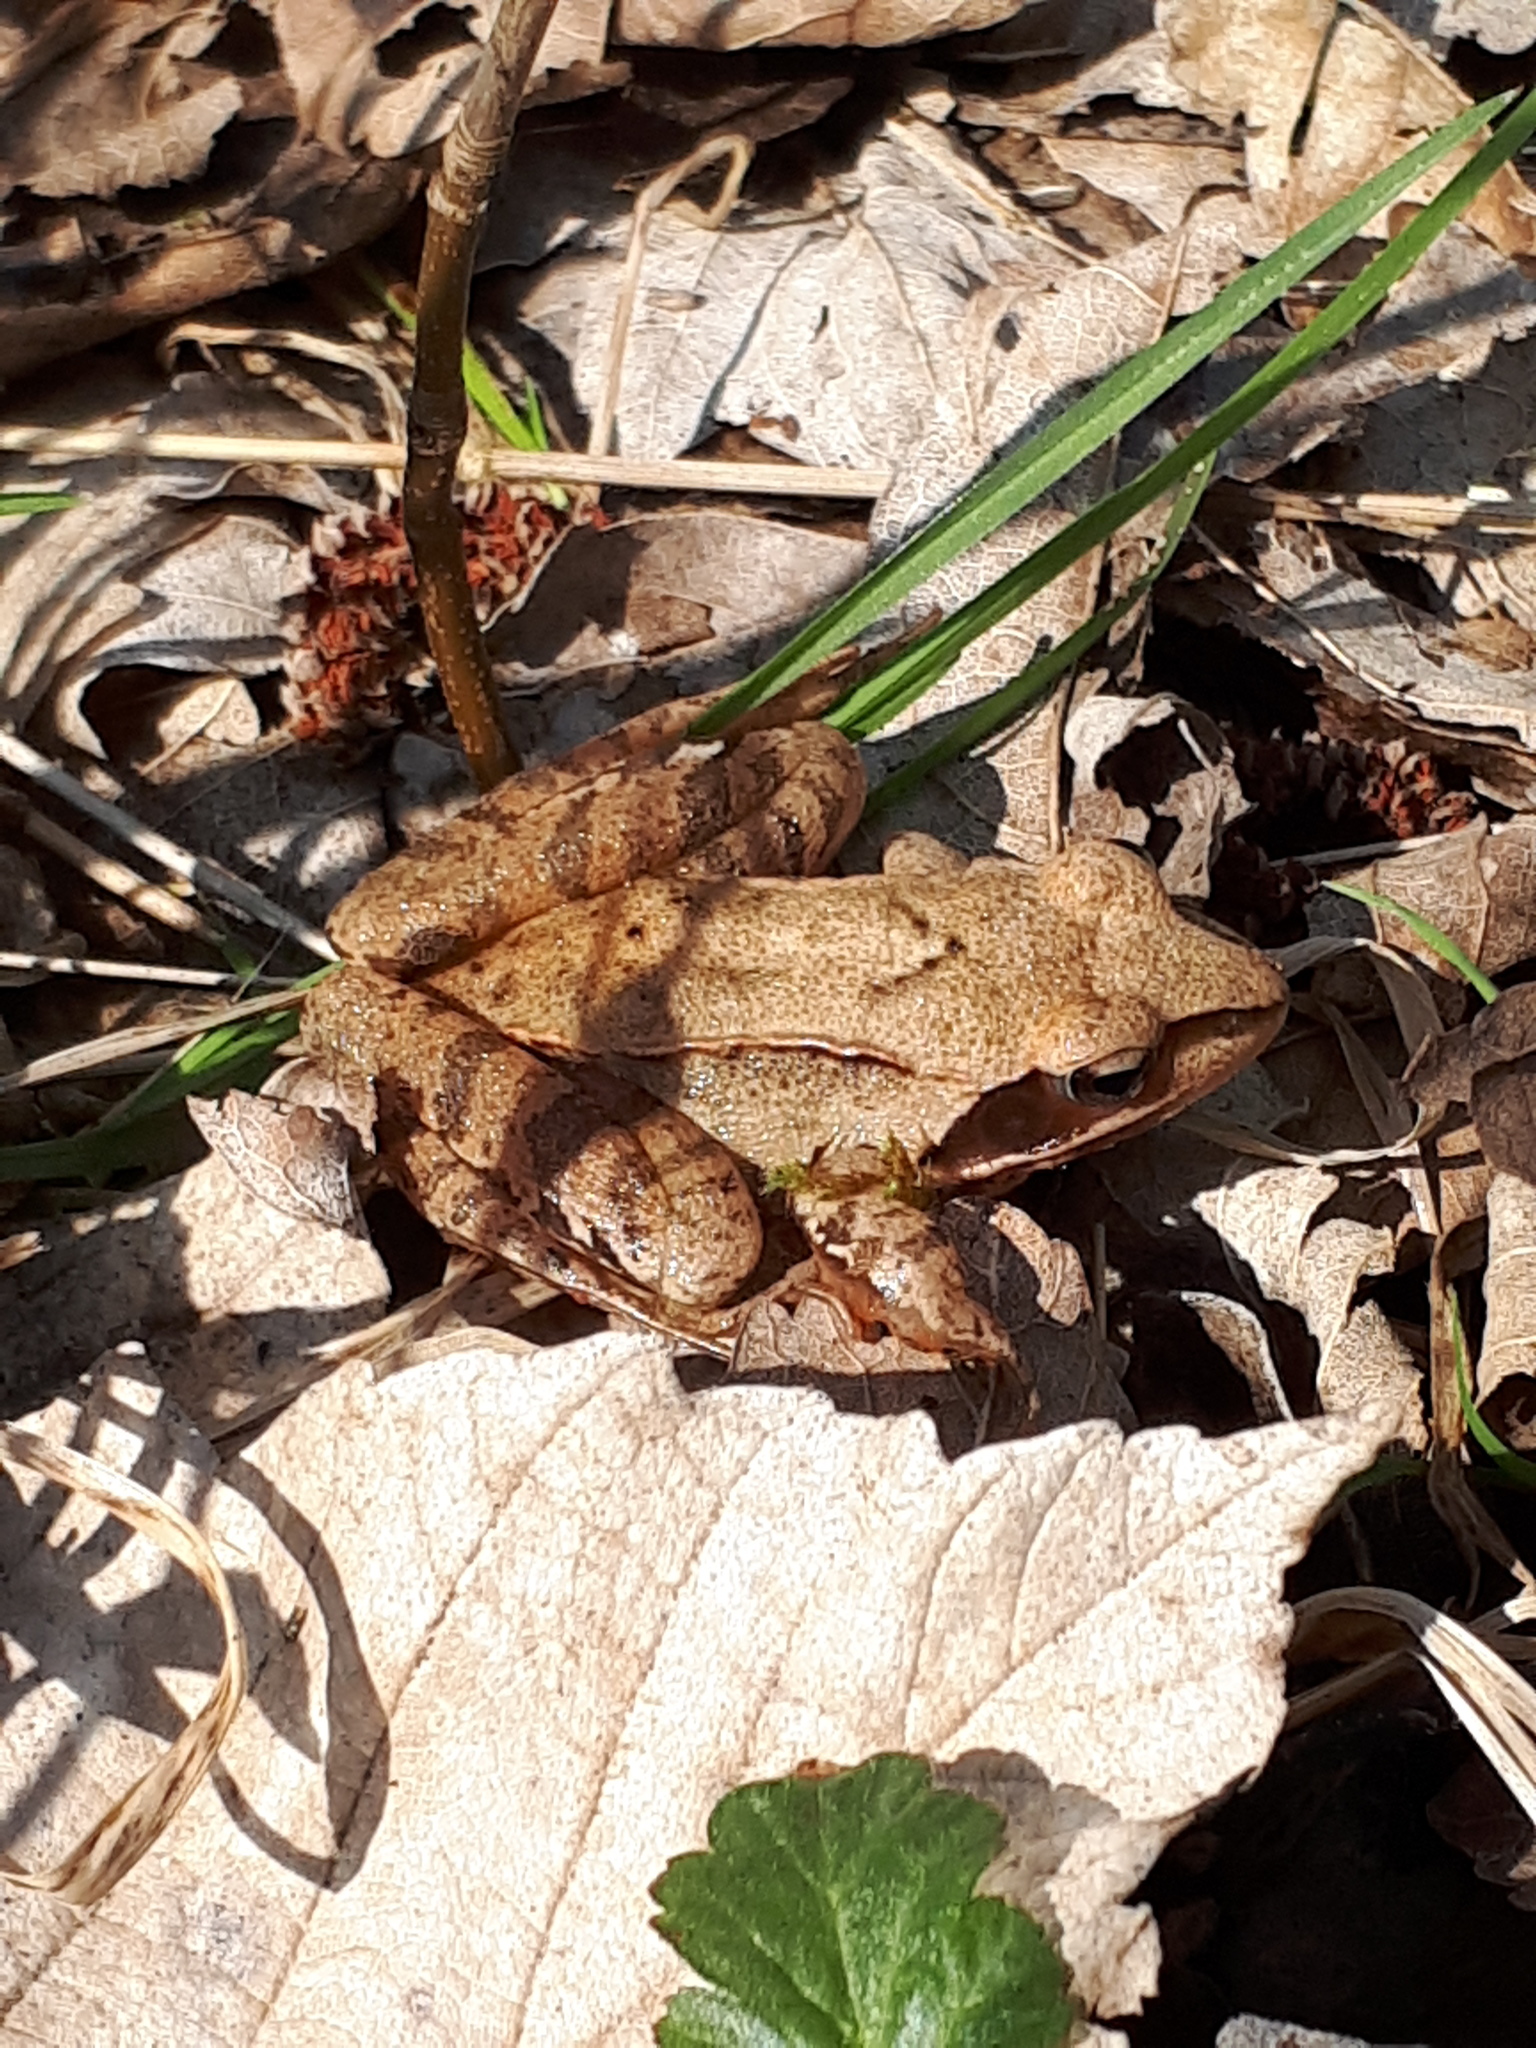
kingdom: Animalia
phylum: Chordata
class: Amphibia
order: Anura
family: Ranidae
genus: Rana
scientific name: Rana dalmatina
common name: Agile frog
